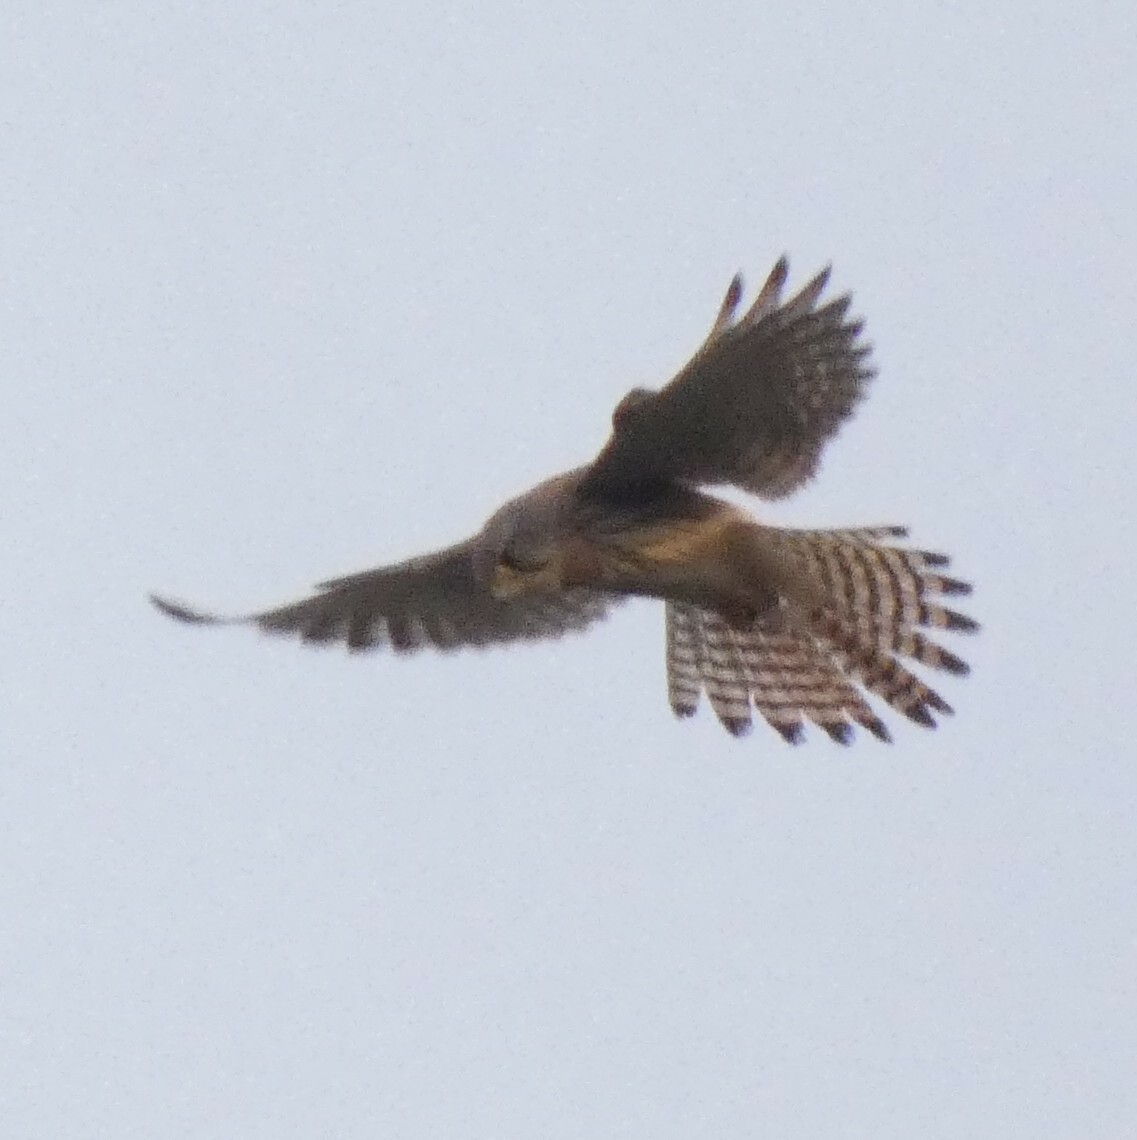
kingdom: Animalia
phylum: Chordata
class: Aves
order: Falconiformes
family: Falconidae
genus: Falco
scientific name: Falco tinnunculus
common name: Common kestrel
